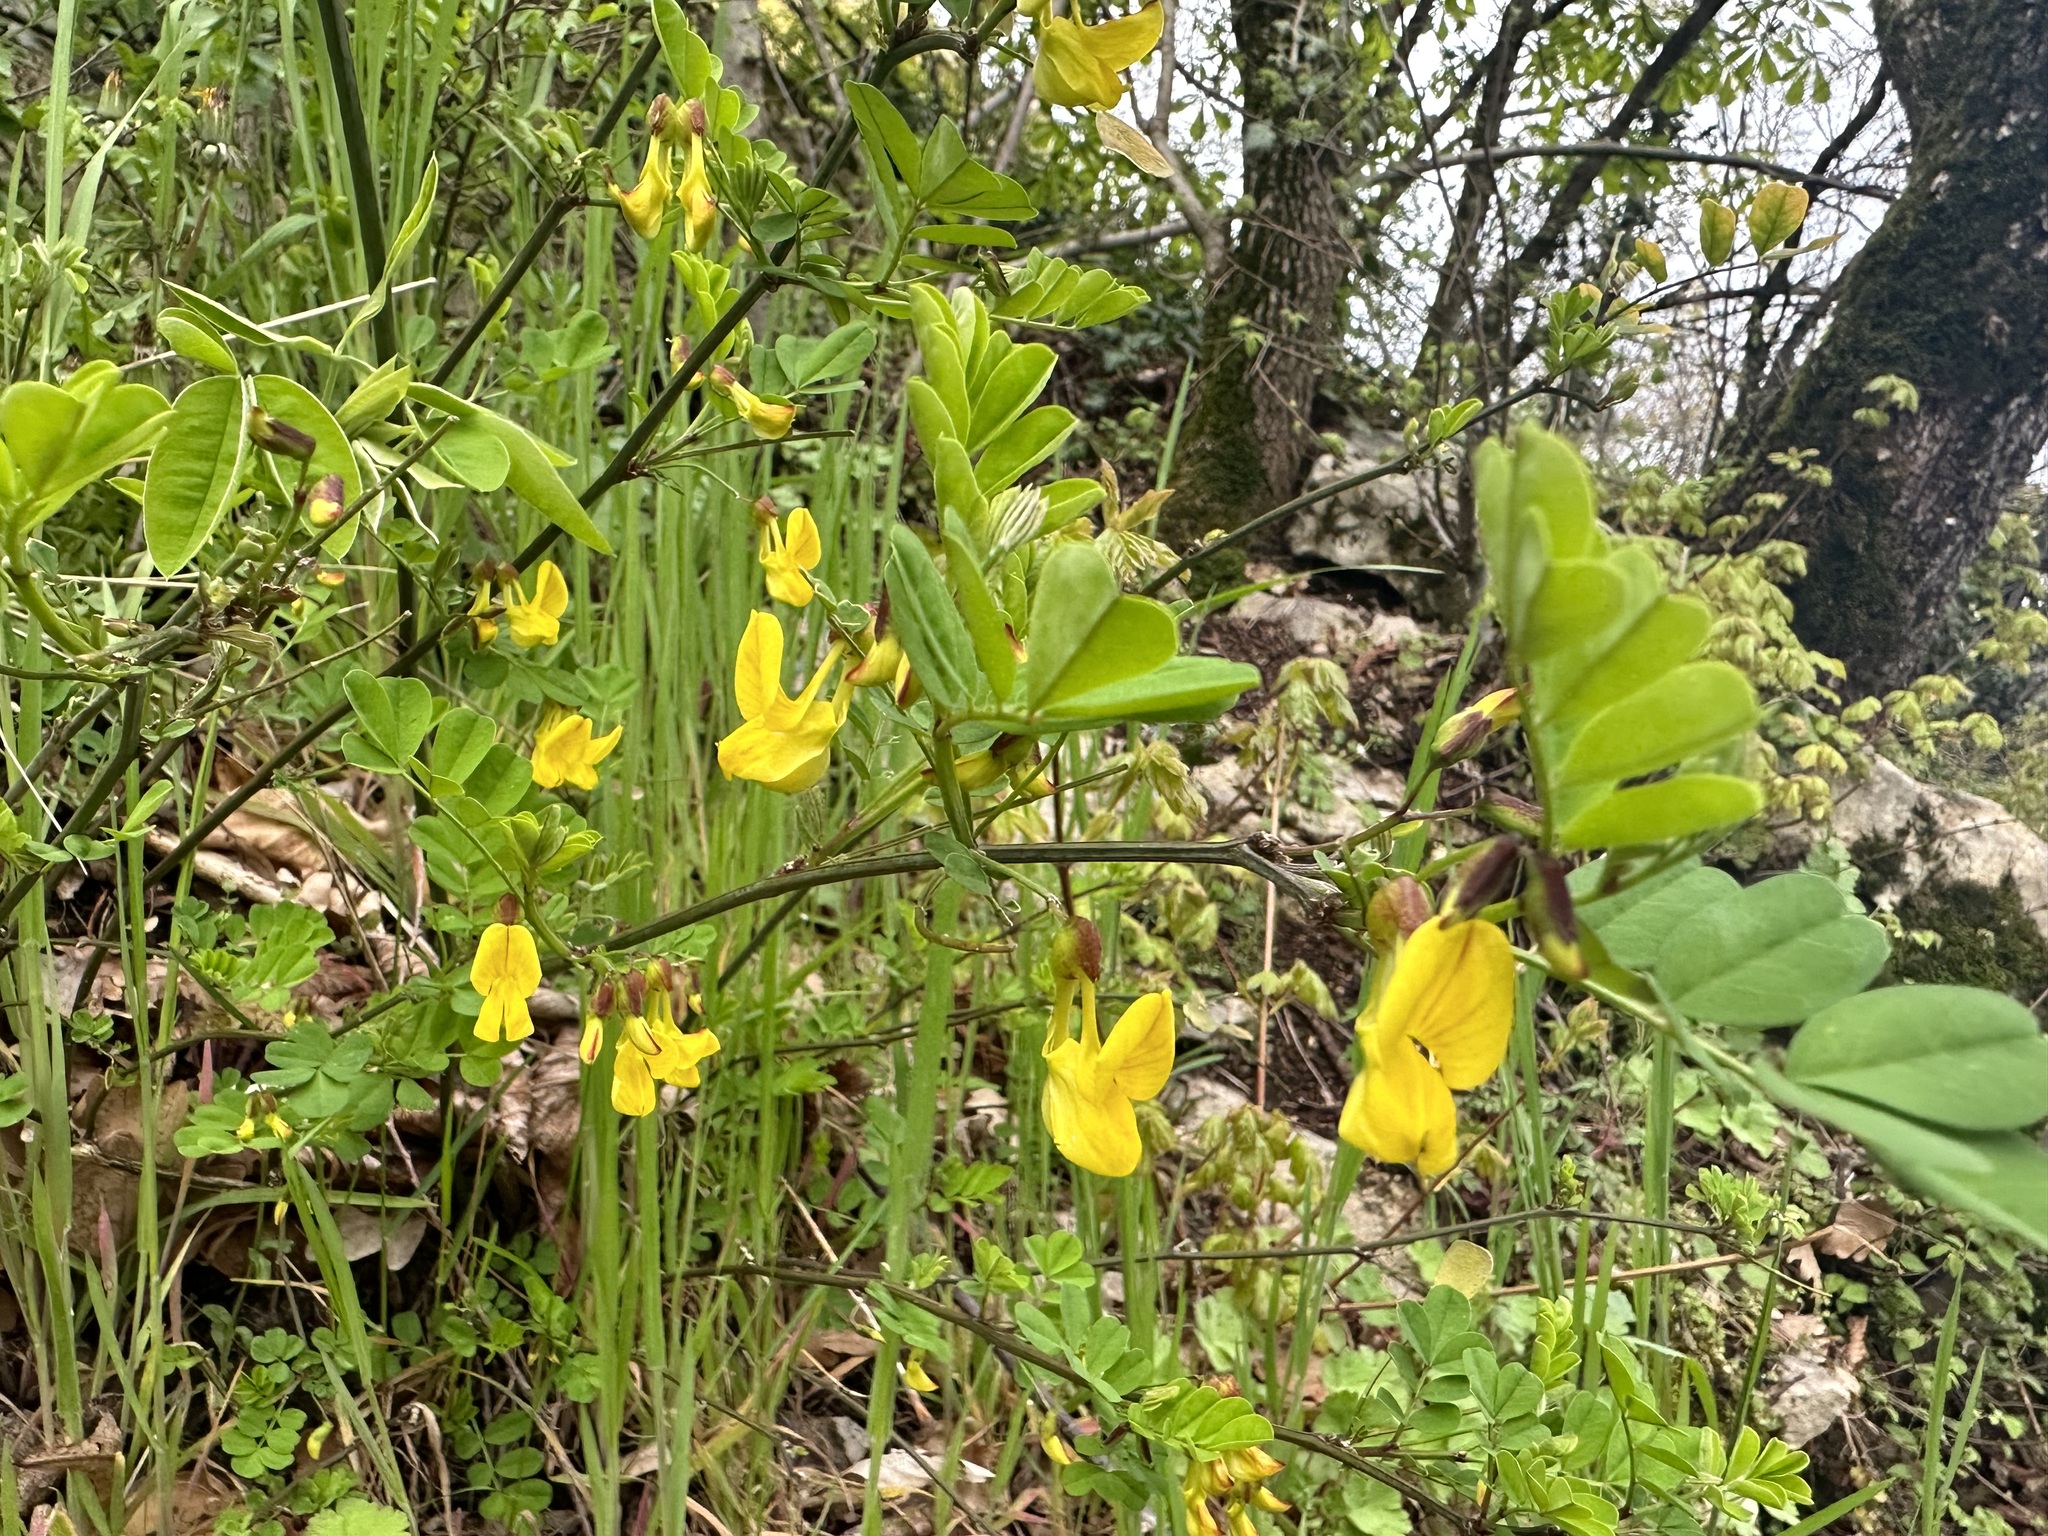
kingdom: Plantae
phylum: Tracheophyta
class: Magnoliopsida
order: Fabales
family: Fabaceae
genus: Hippocrepis
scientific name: Hippocrepis emerus
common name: Scorpion senna
